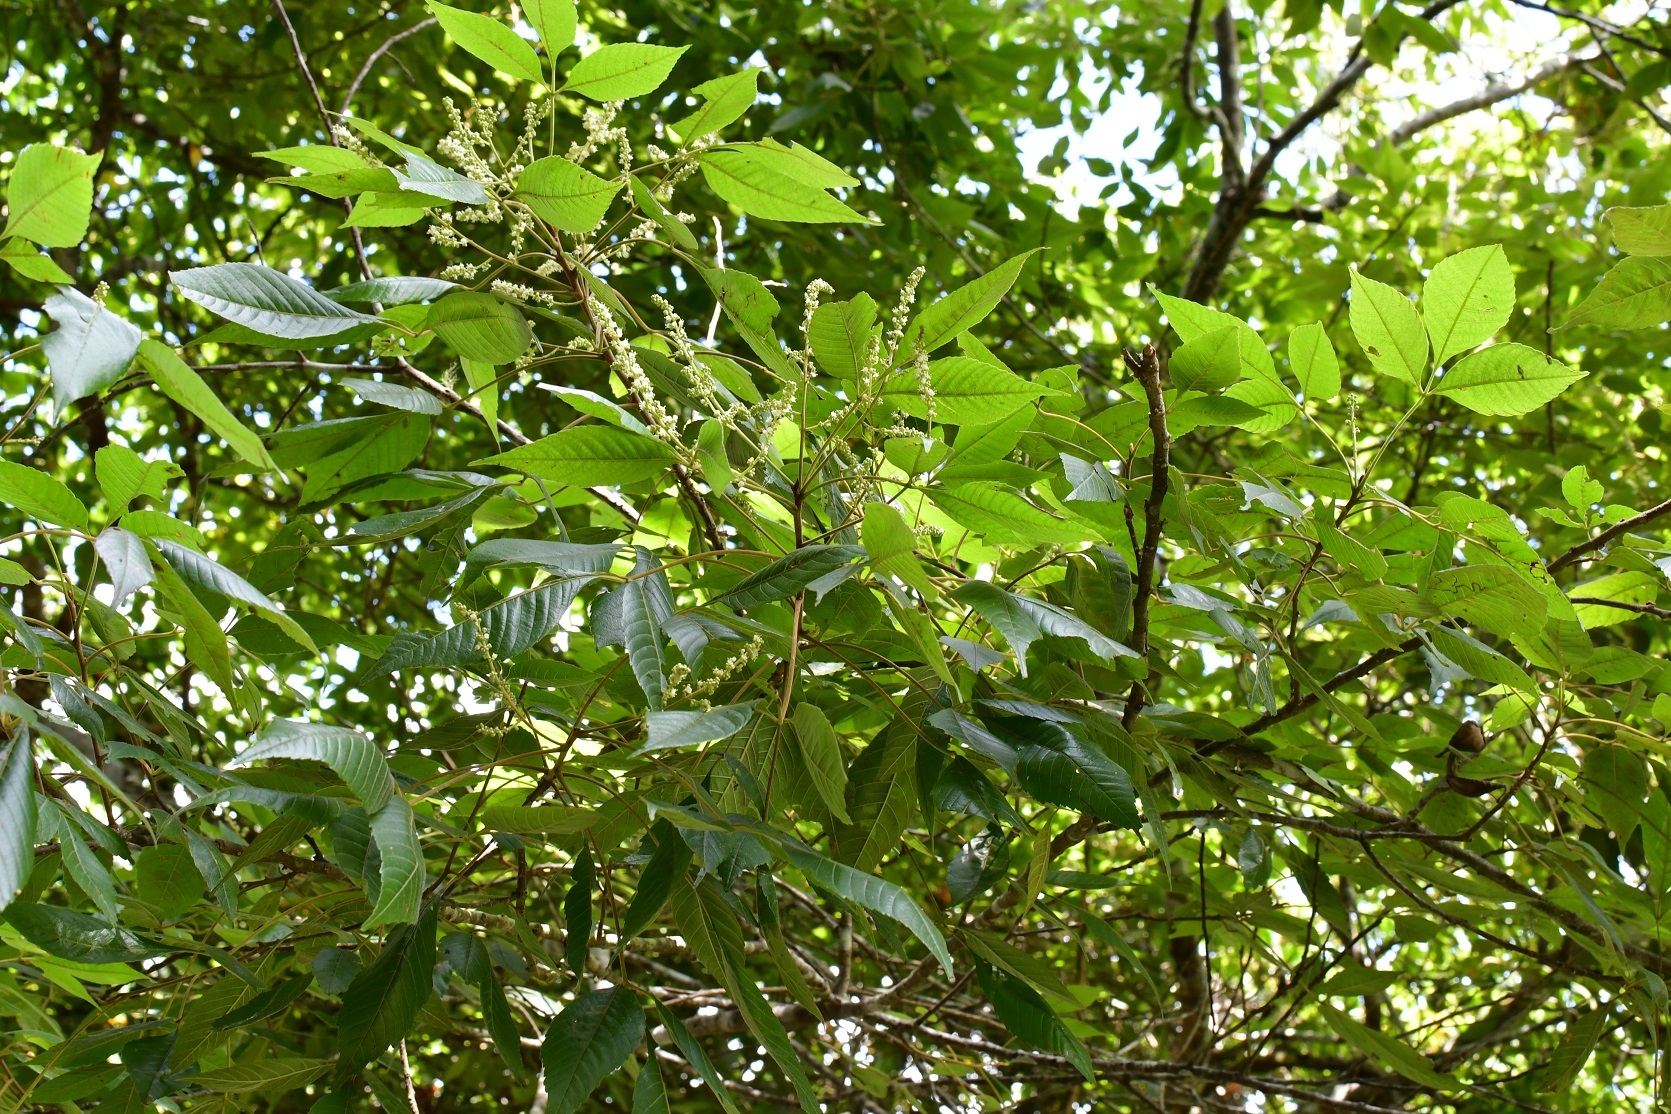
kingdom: Plantae
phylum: Tracheophyta
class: Magnoliopsida
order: Sapindales
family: Sapindaceae
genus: Thouinia
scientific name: Thouinia serrata
